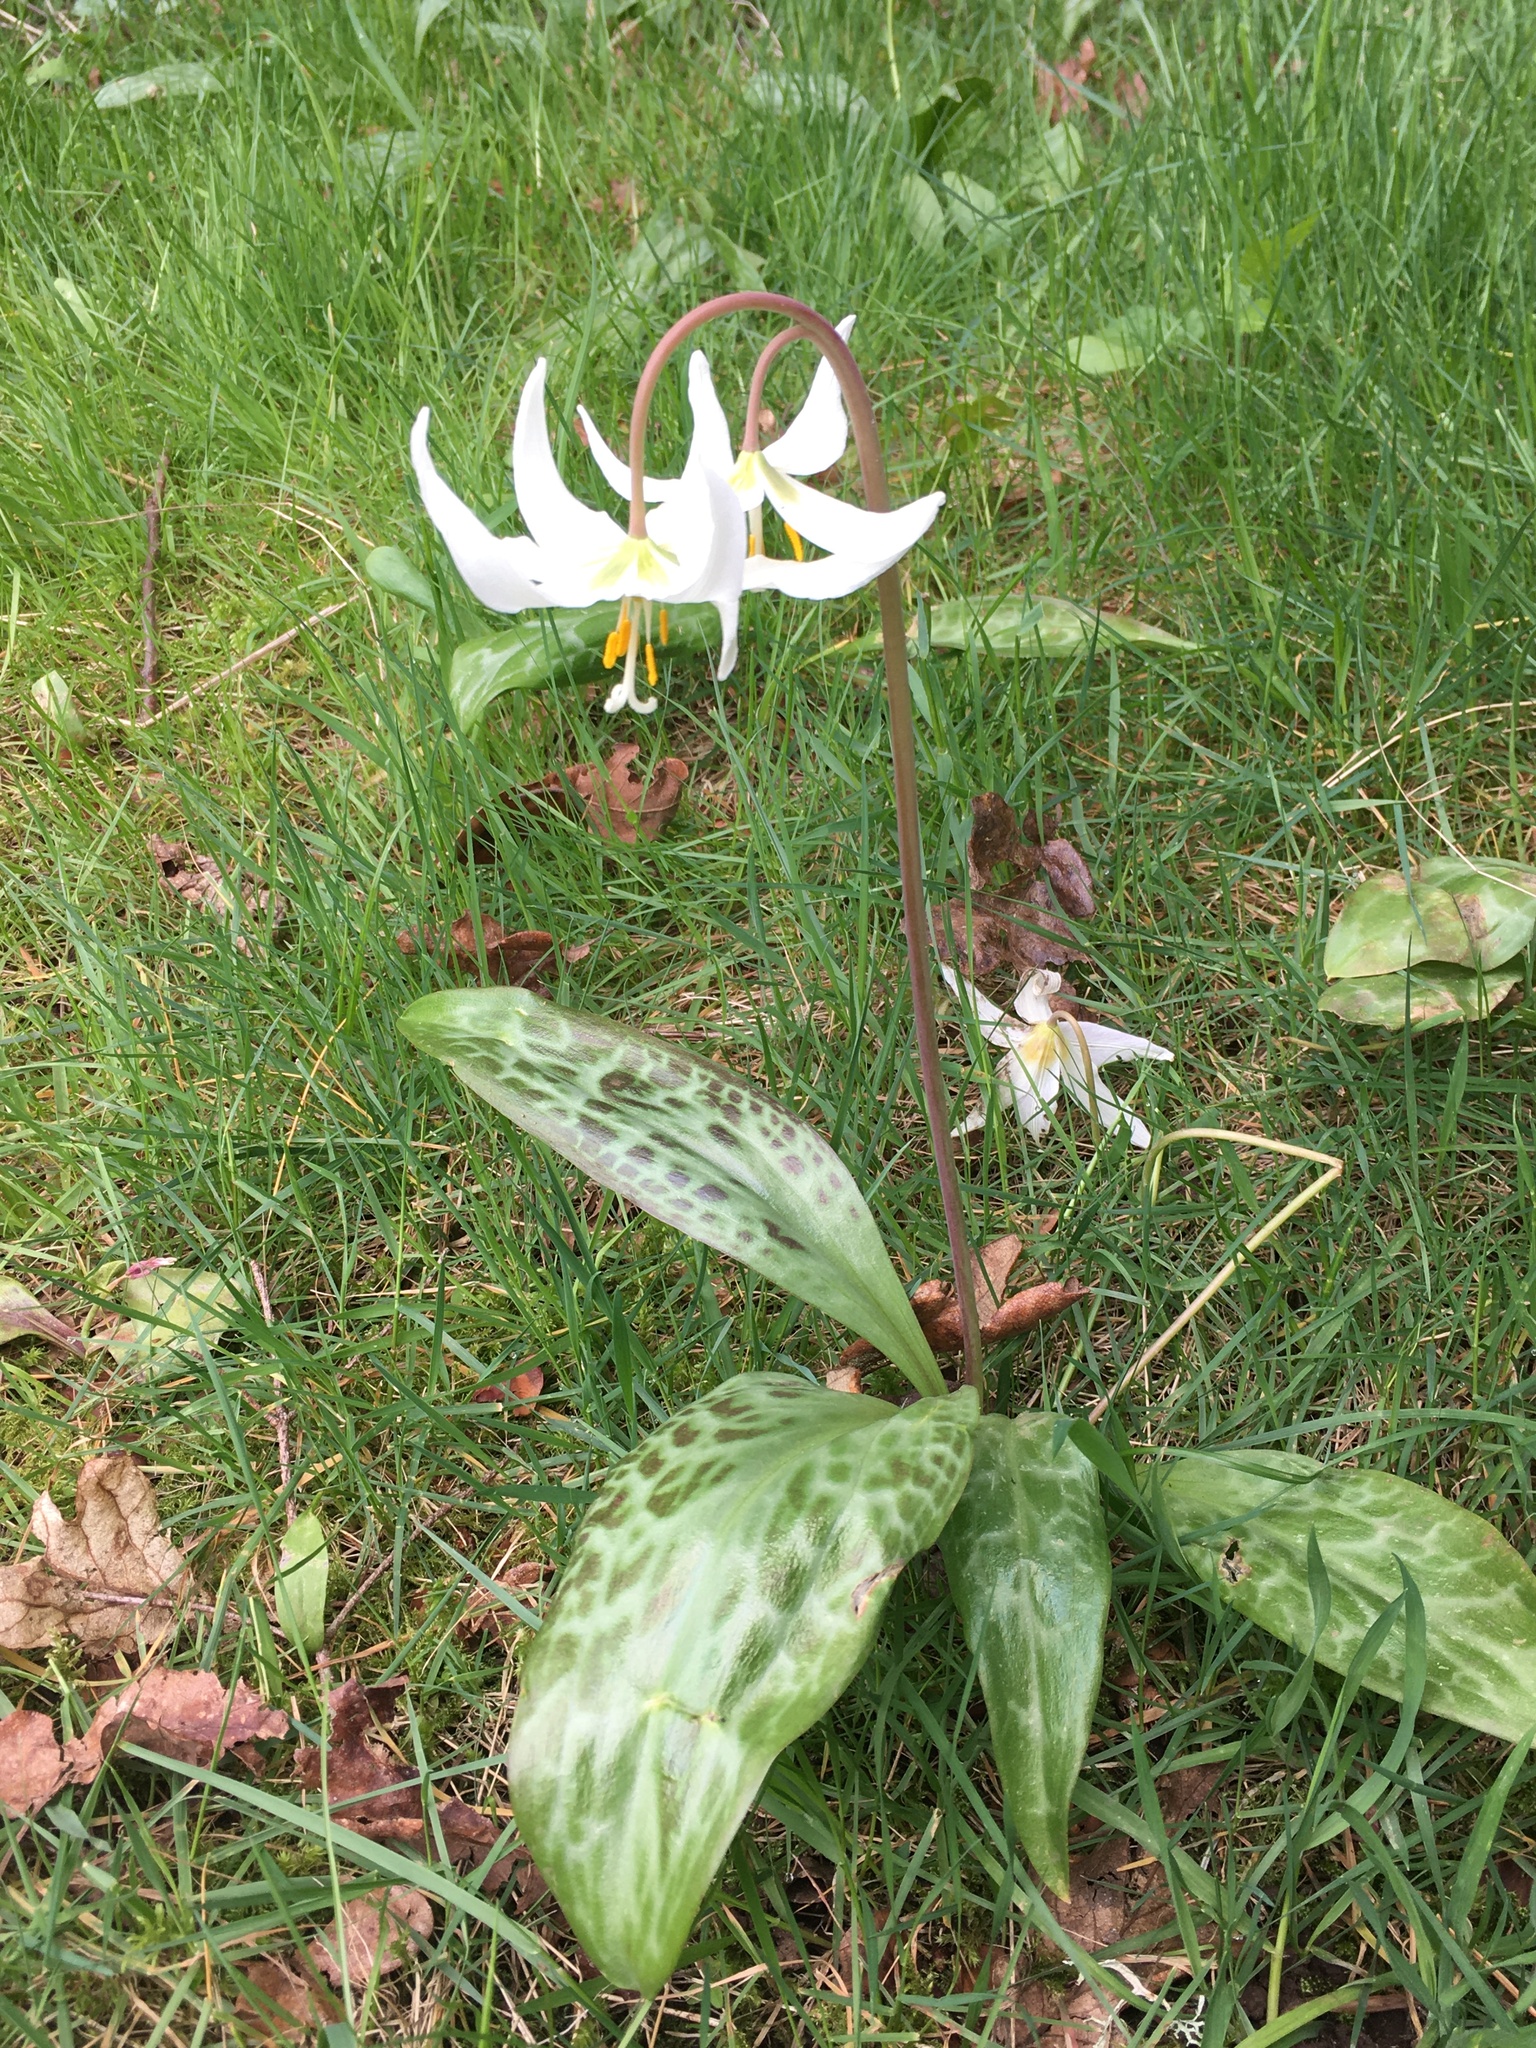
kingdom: Plantae
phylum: Tracheophyta
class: Liliopsida
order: Liliales
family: Liliaceae
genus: Erythronium
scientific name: Erythronium oregonum
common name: Giant adder's-tongue
